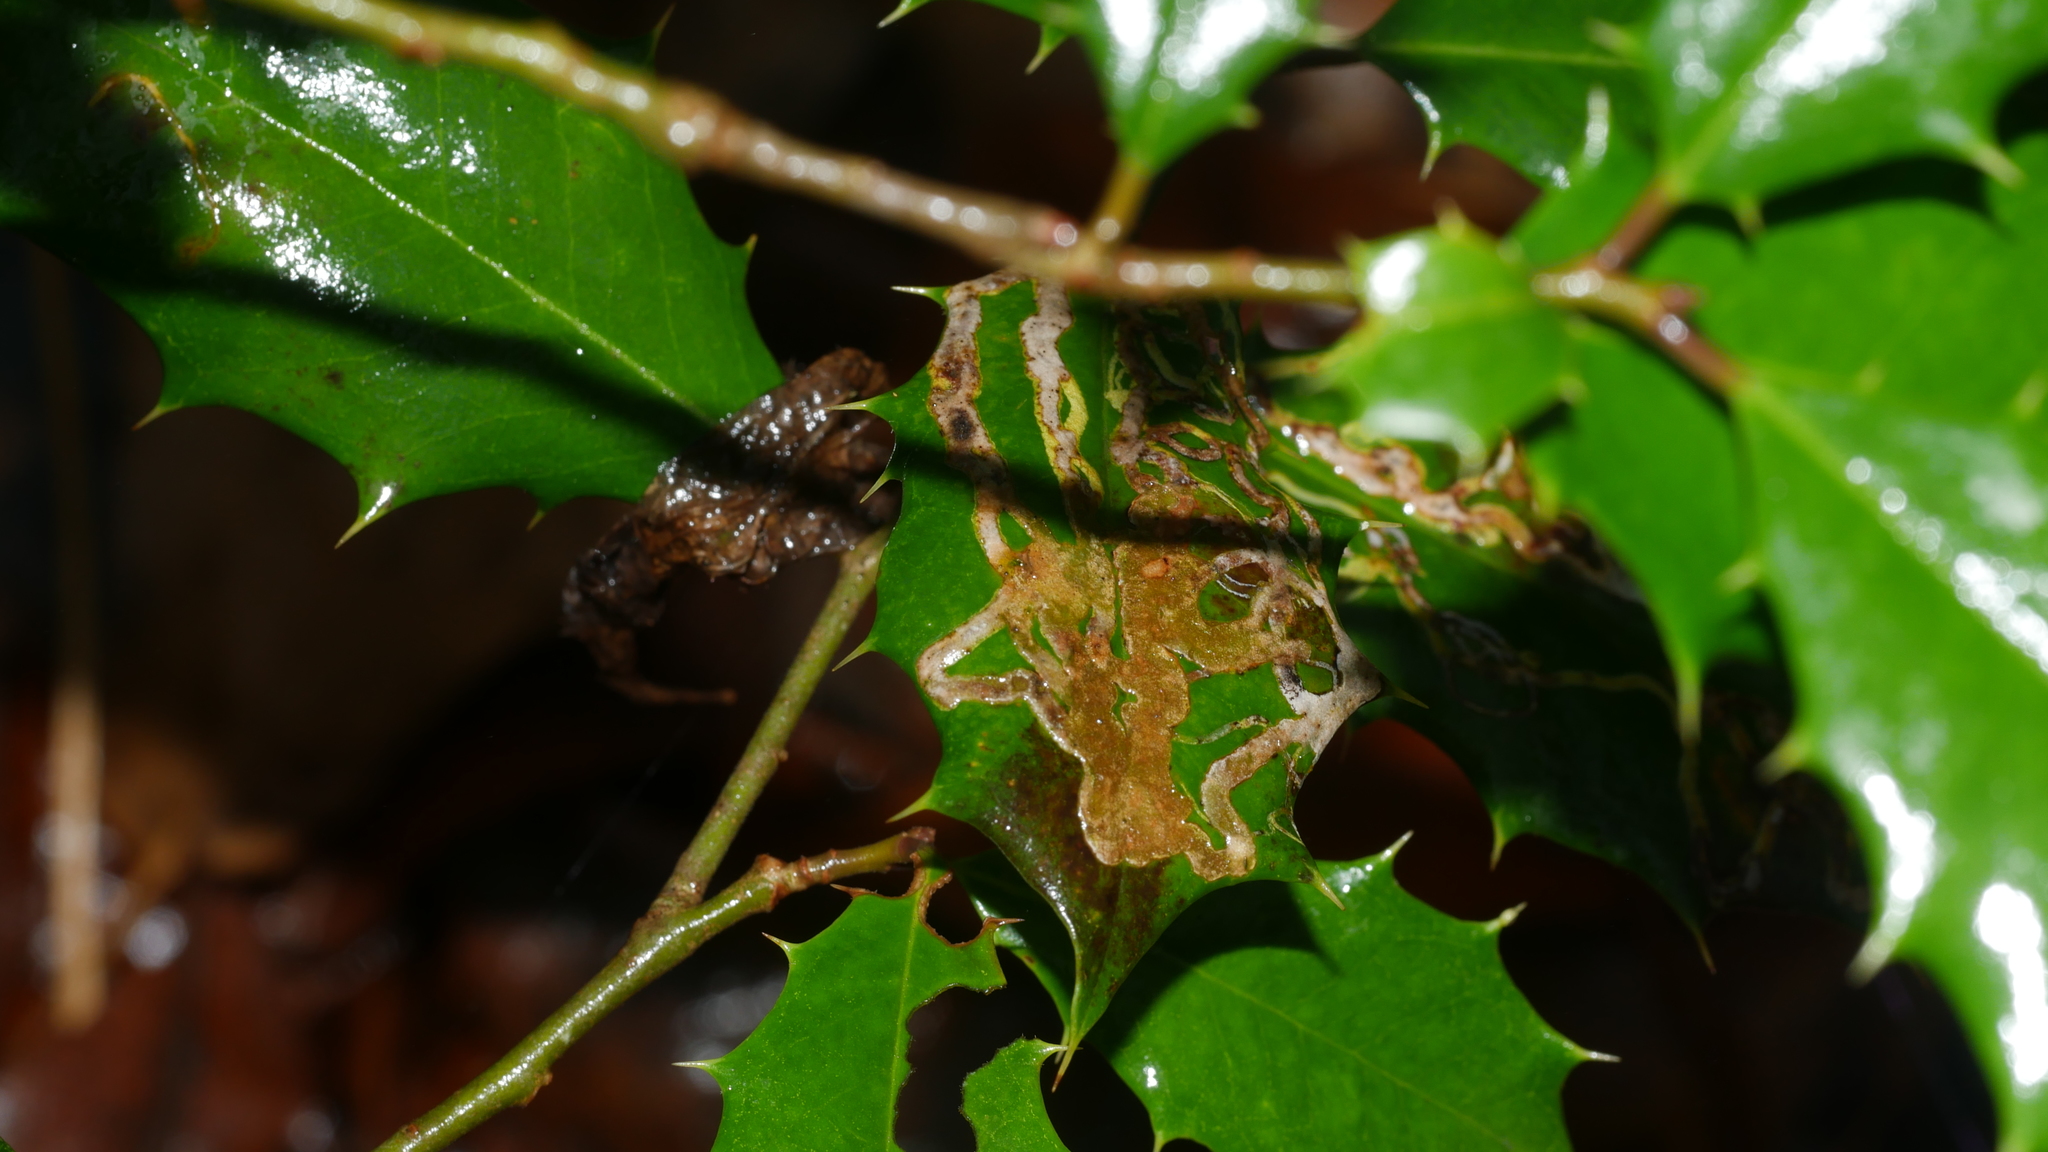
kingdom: Animalia
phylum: Arthropoda
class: Insecta
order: Diptera
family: Agromyzidae
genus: Phytomyza
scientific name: Phytomyza opacae
